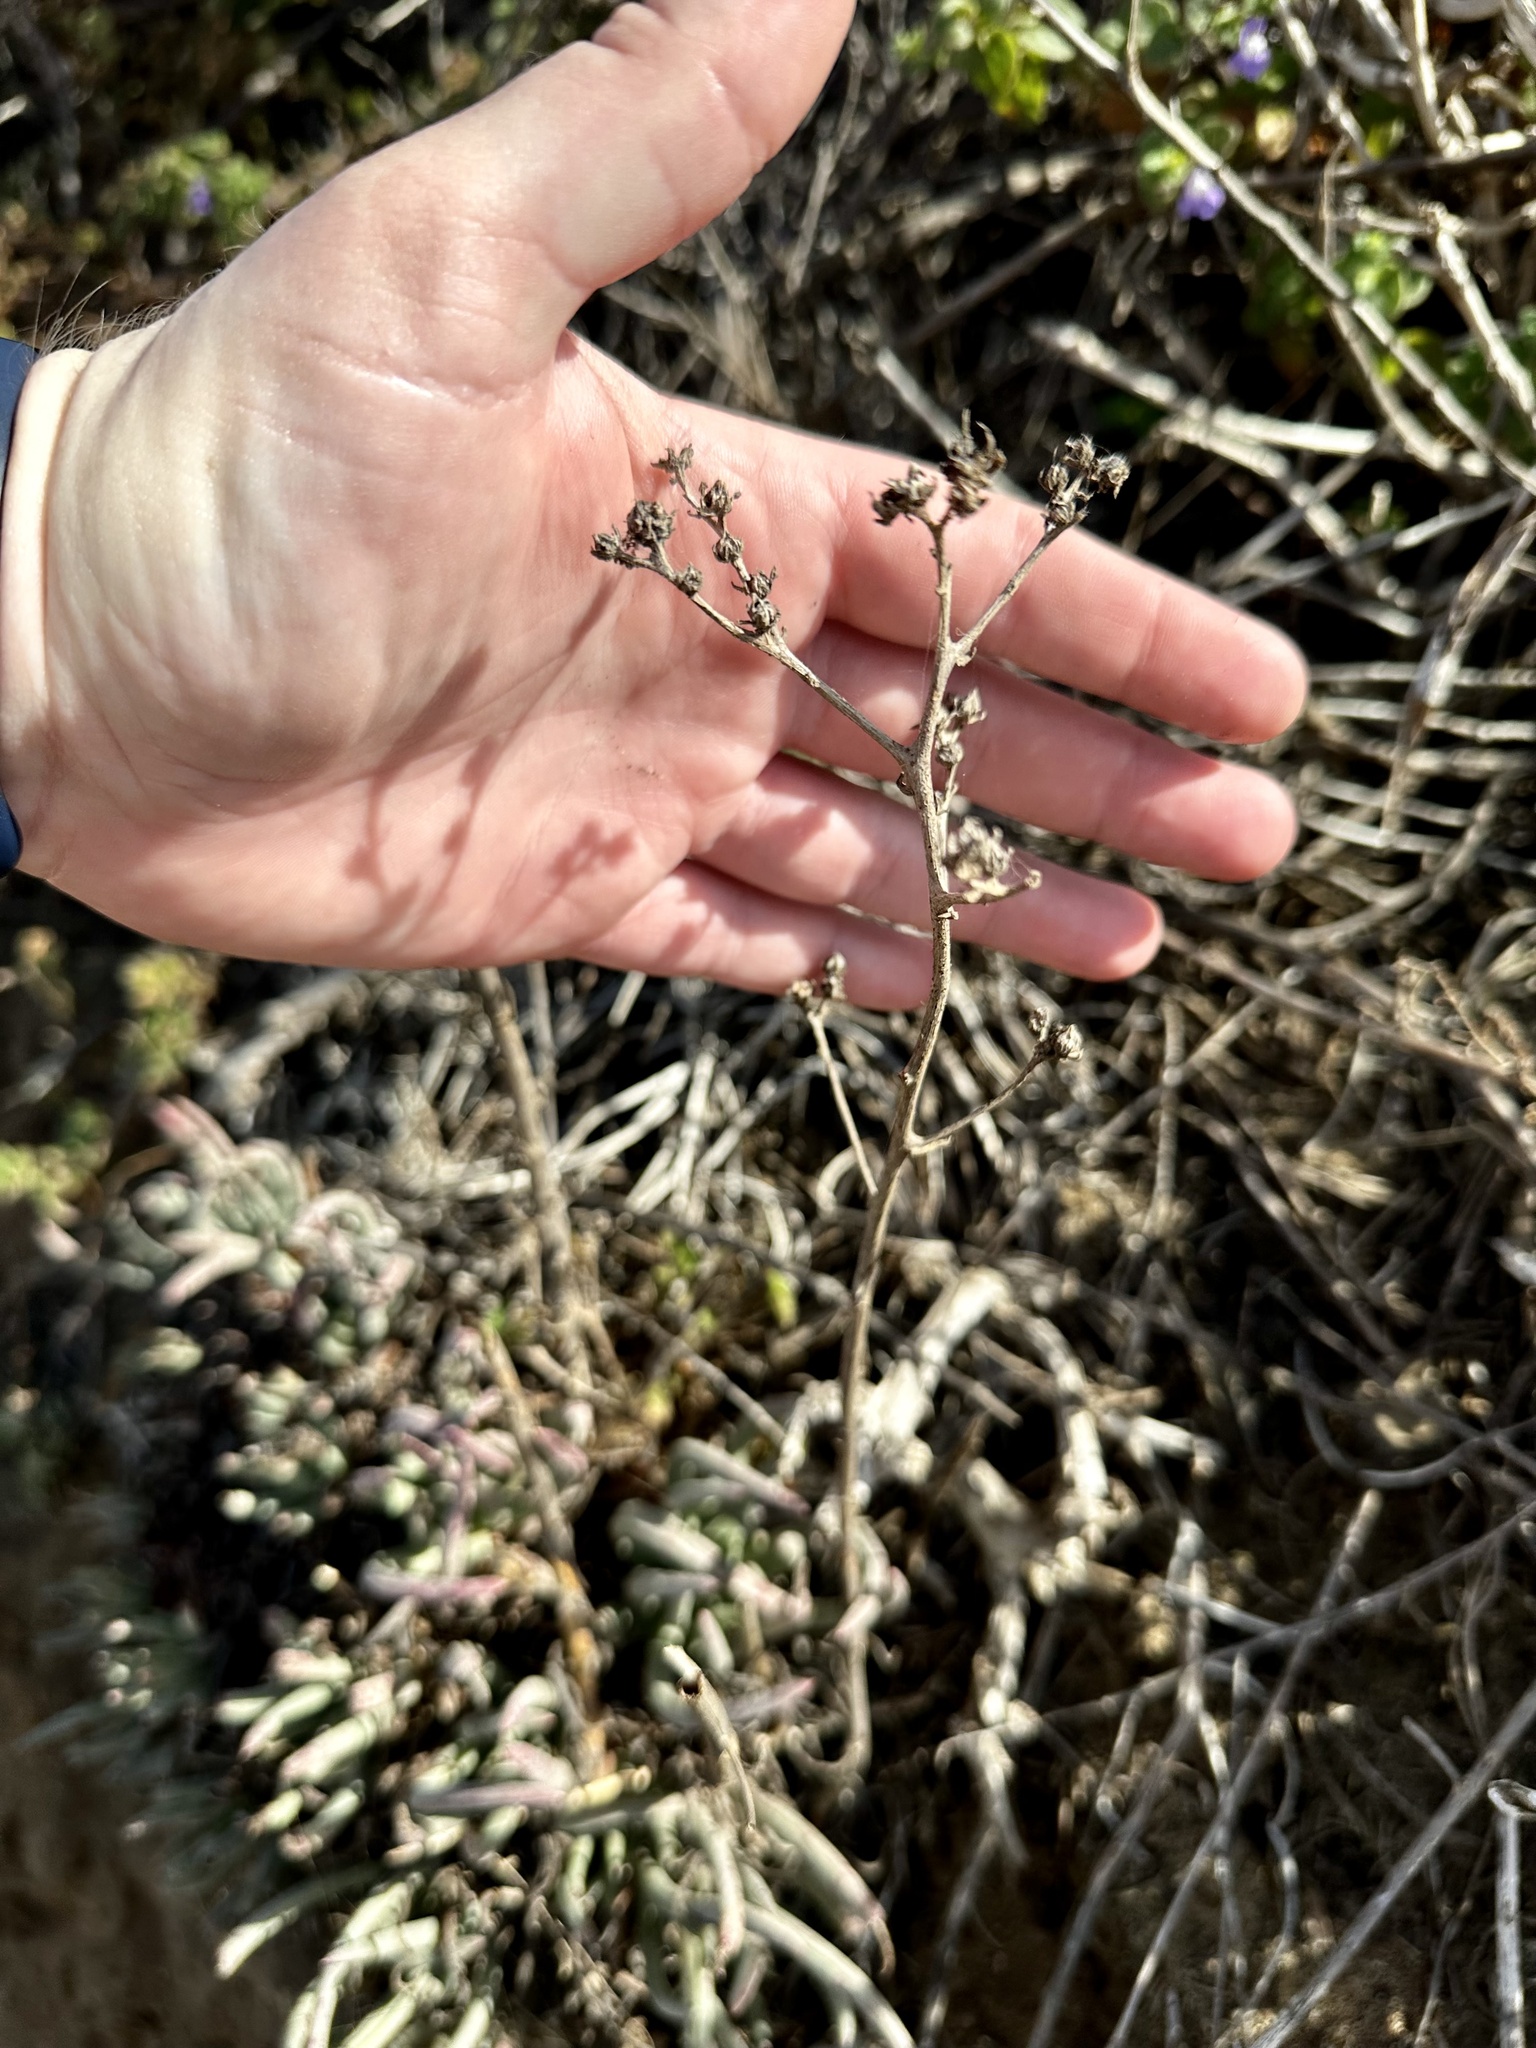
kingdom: Plantae
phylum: Tracheophyta
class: Magnoliopsida
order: Saxifragales
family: Crassulaceae
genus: Dudleya
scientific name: Dudleya edulis
